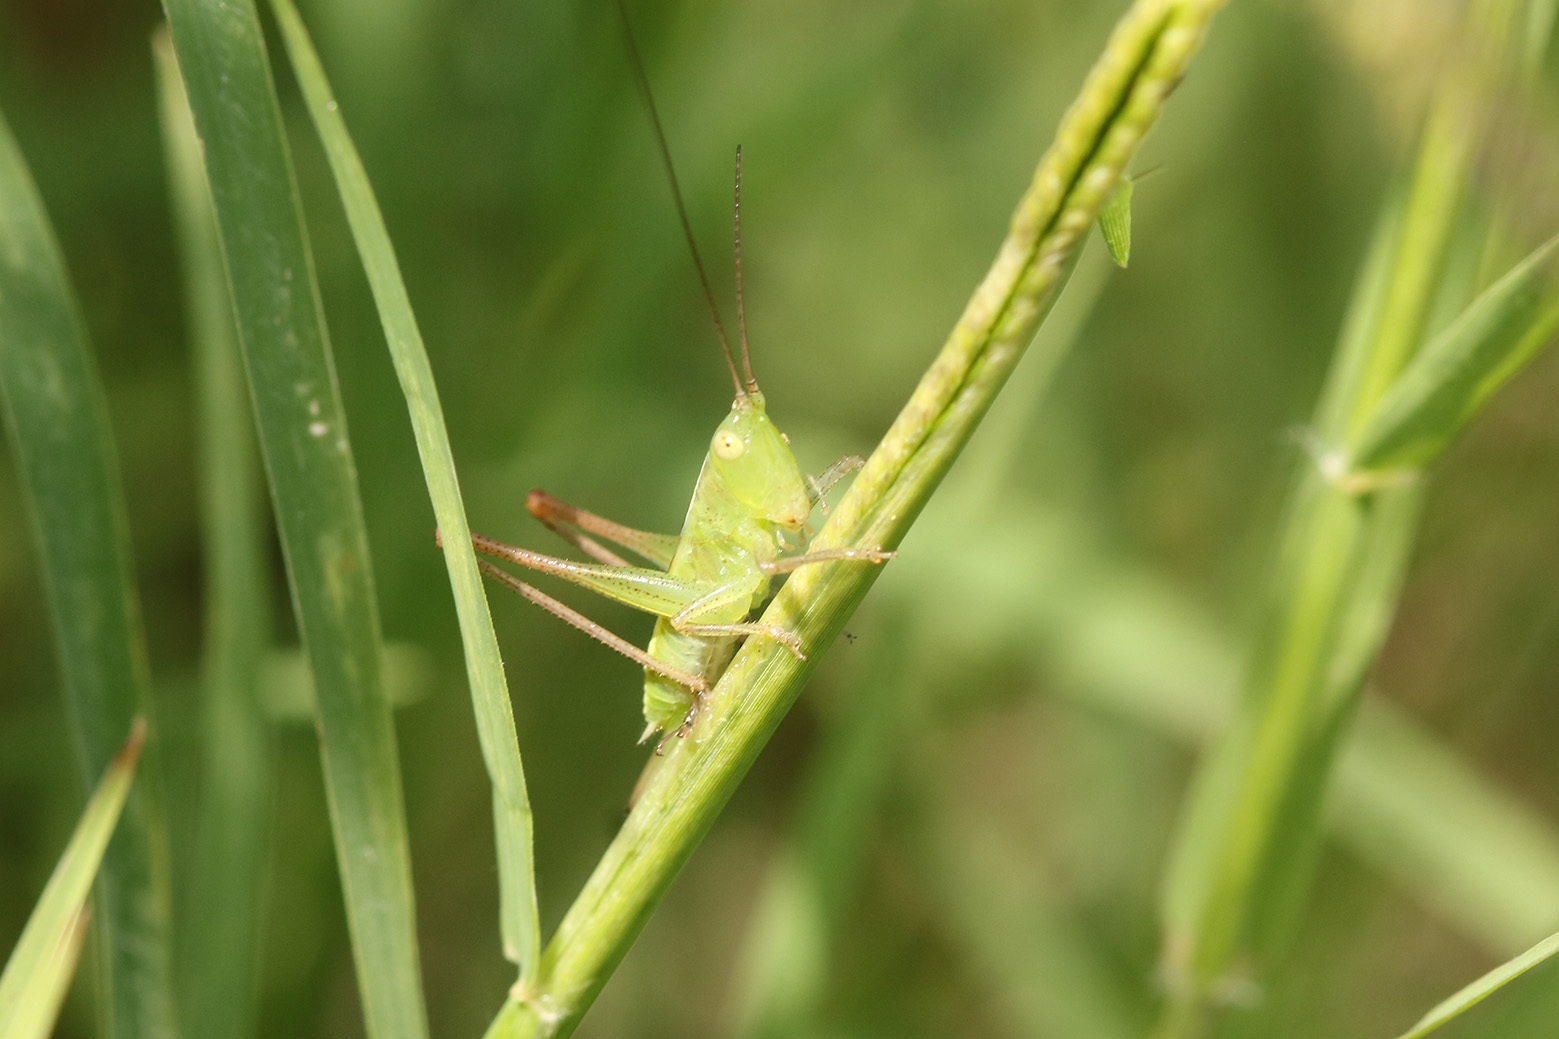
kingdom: Animalia
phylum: Arthropoda
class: Insecta
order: Orthoptera
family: Tettigoniidae
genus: Conocephalus
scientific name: Conocephalus longipes
